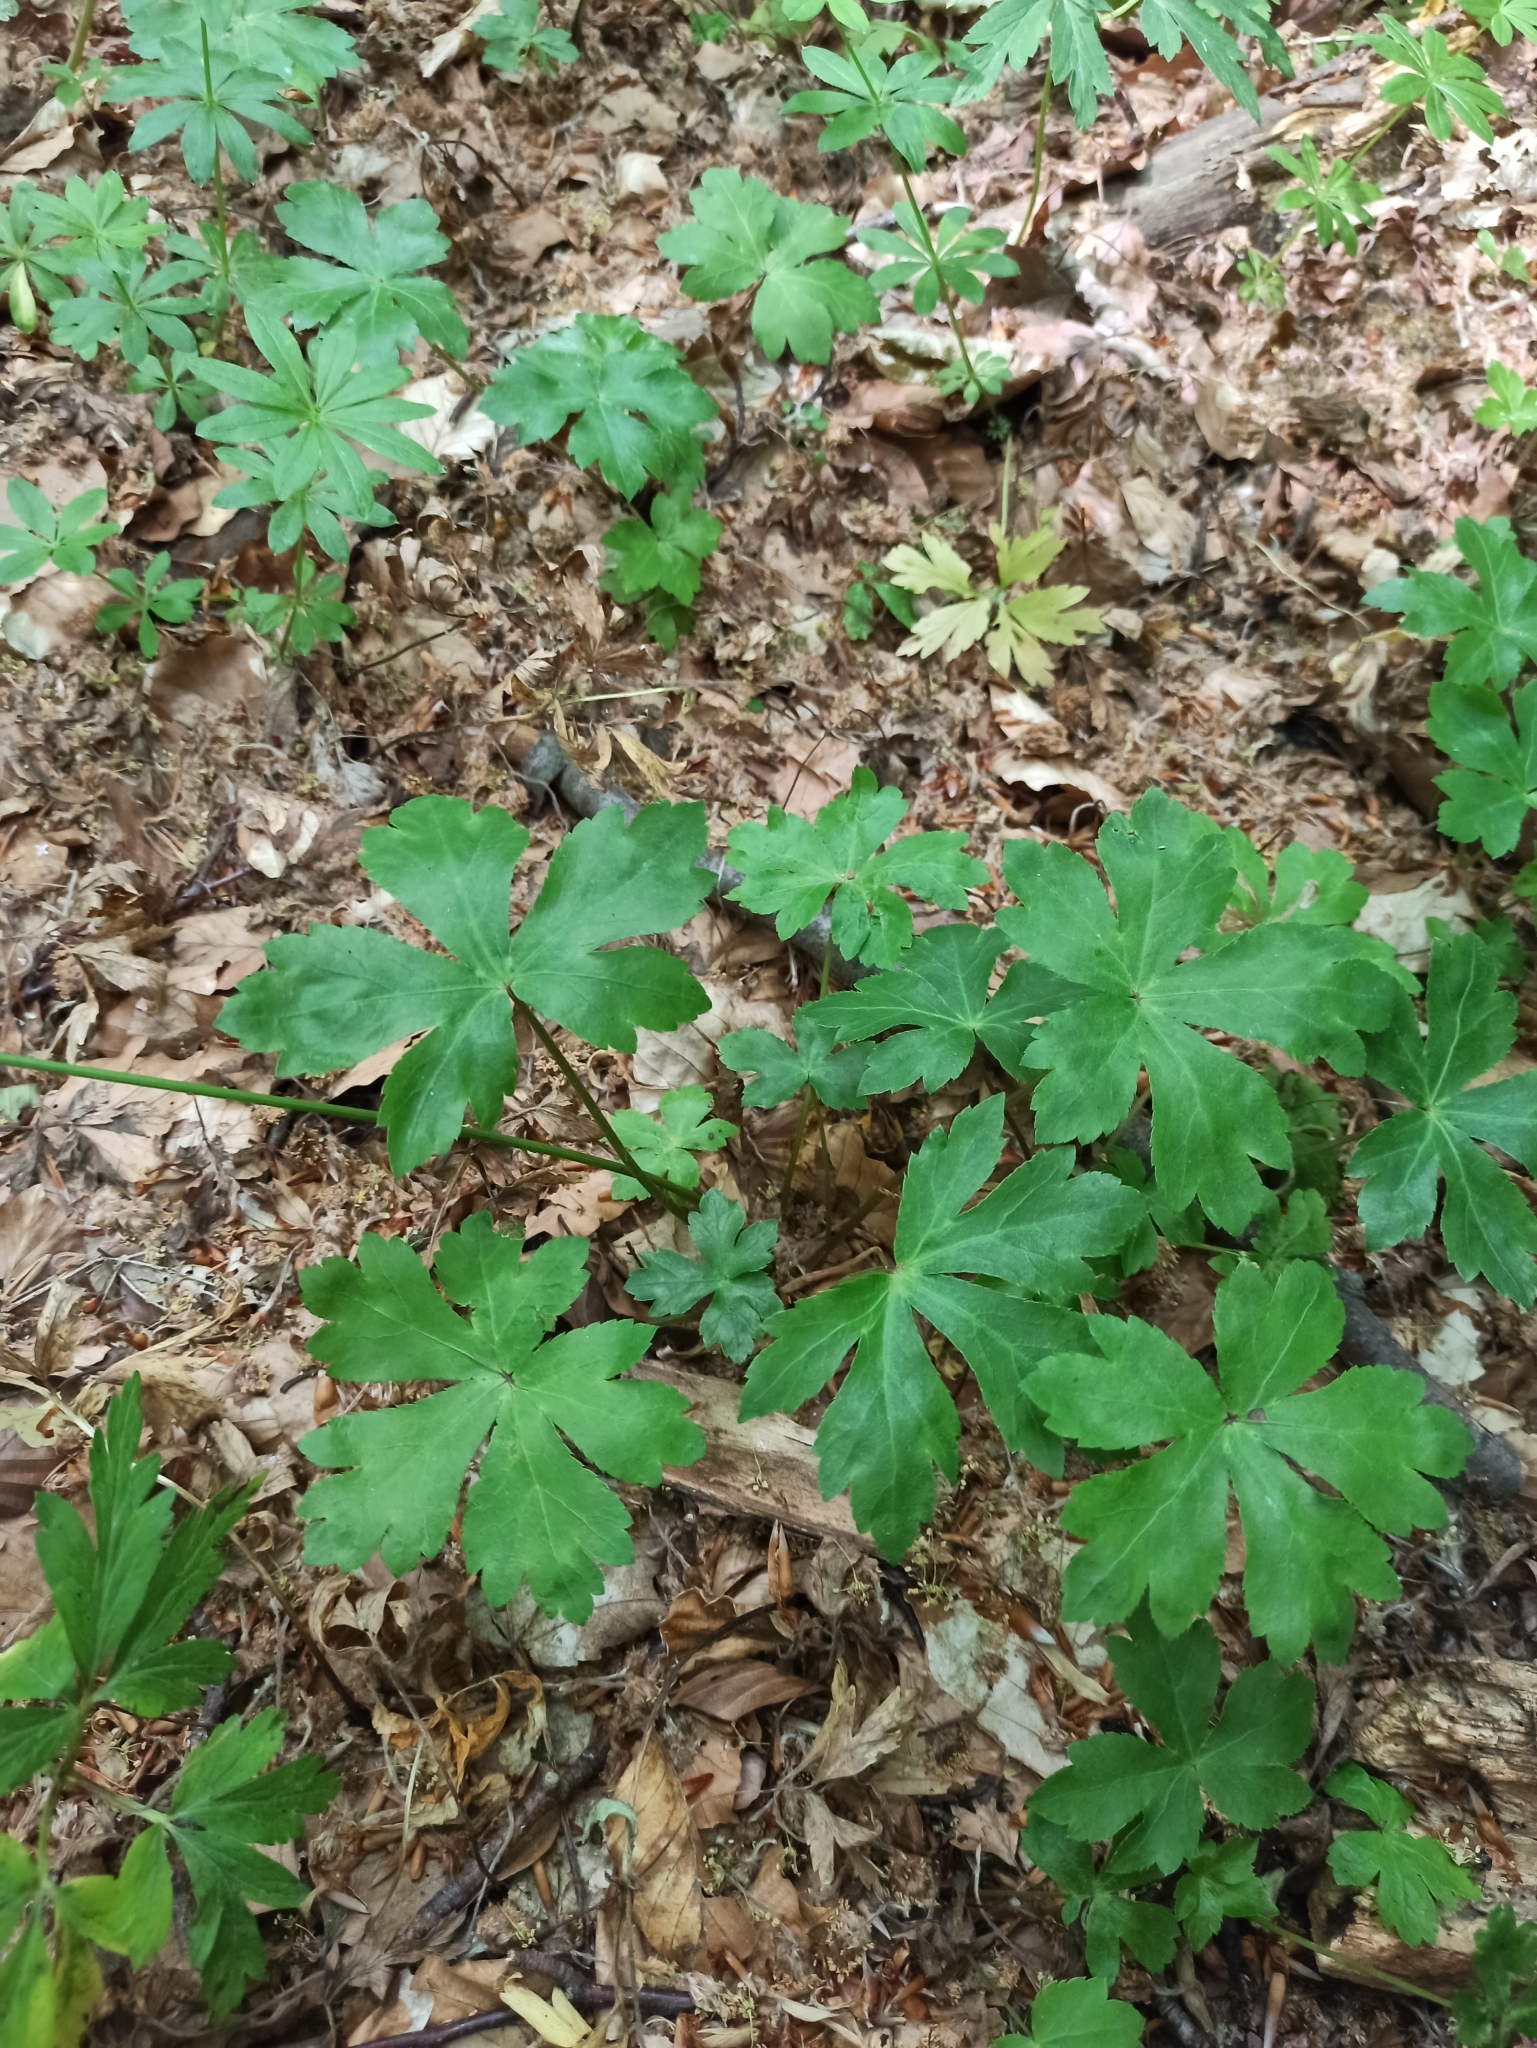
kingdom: Plantae
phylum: Tracheophyta
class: Magnoliopsida
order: Apiales
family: Apiaceae
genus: Sanicula
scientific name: Sanicula europaea
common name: Sanicle
